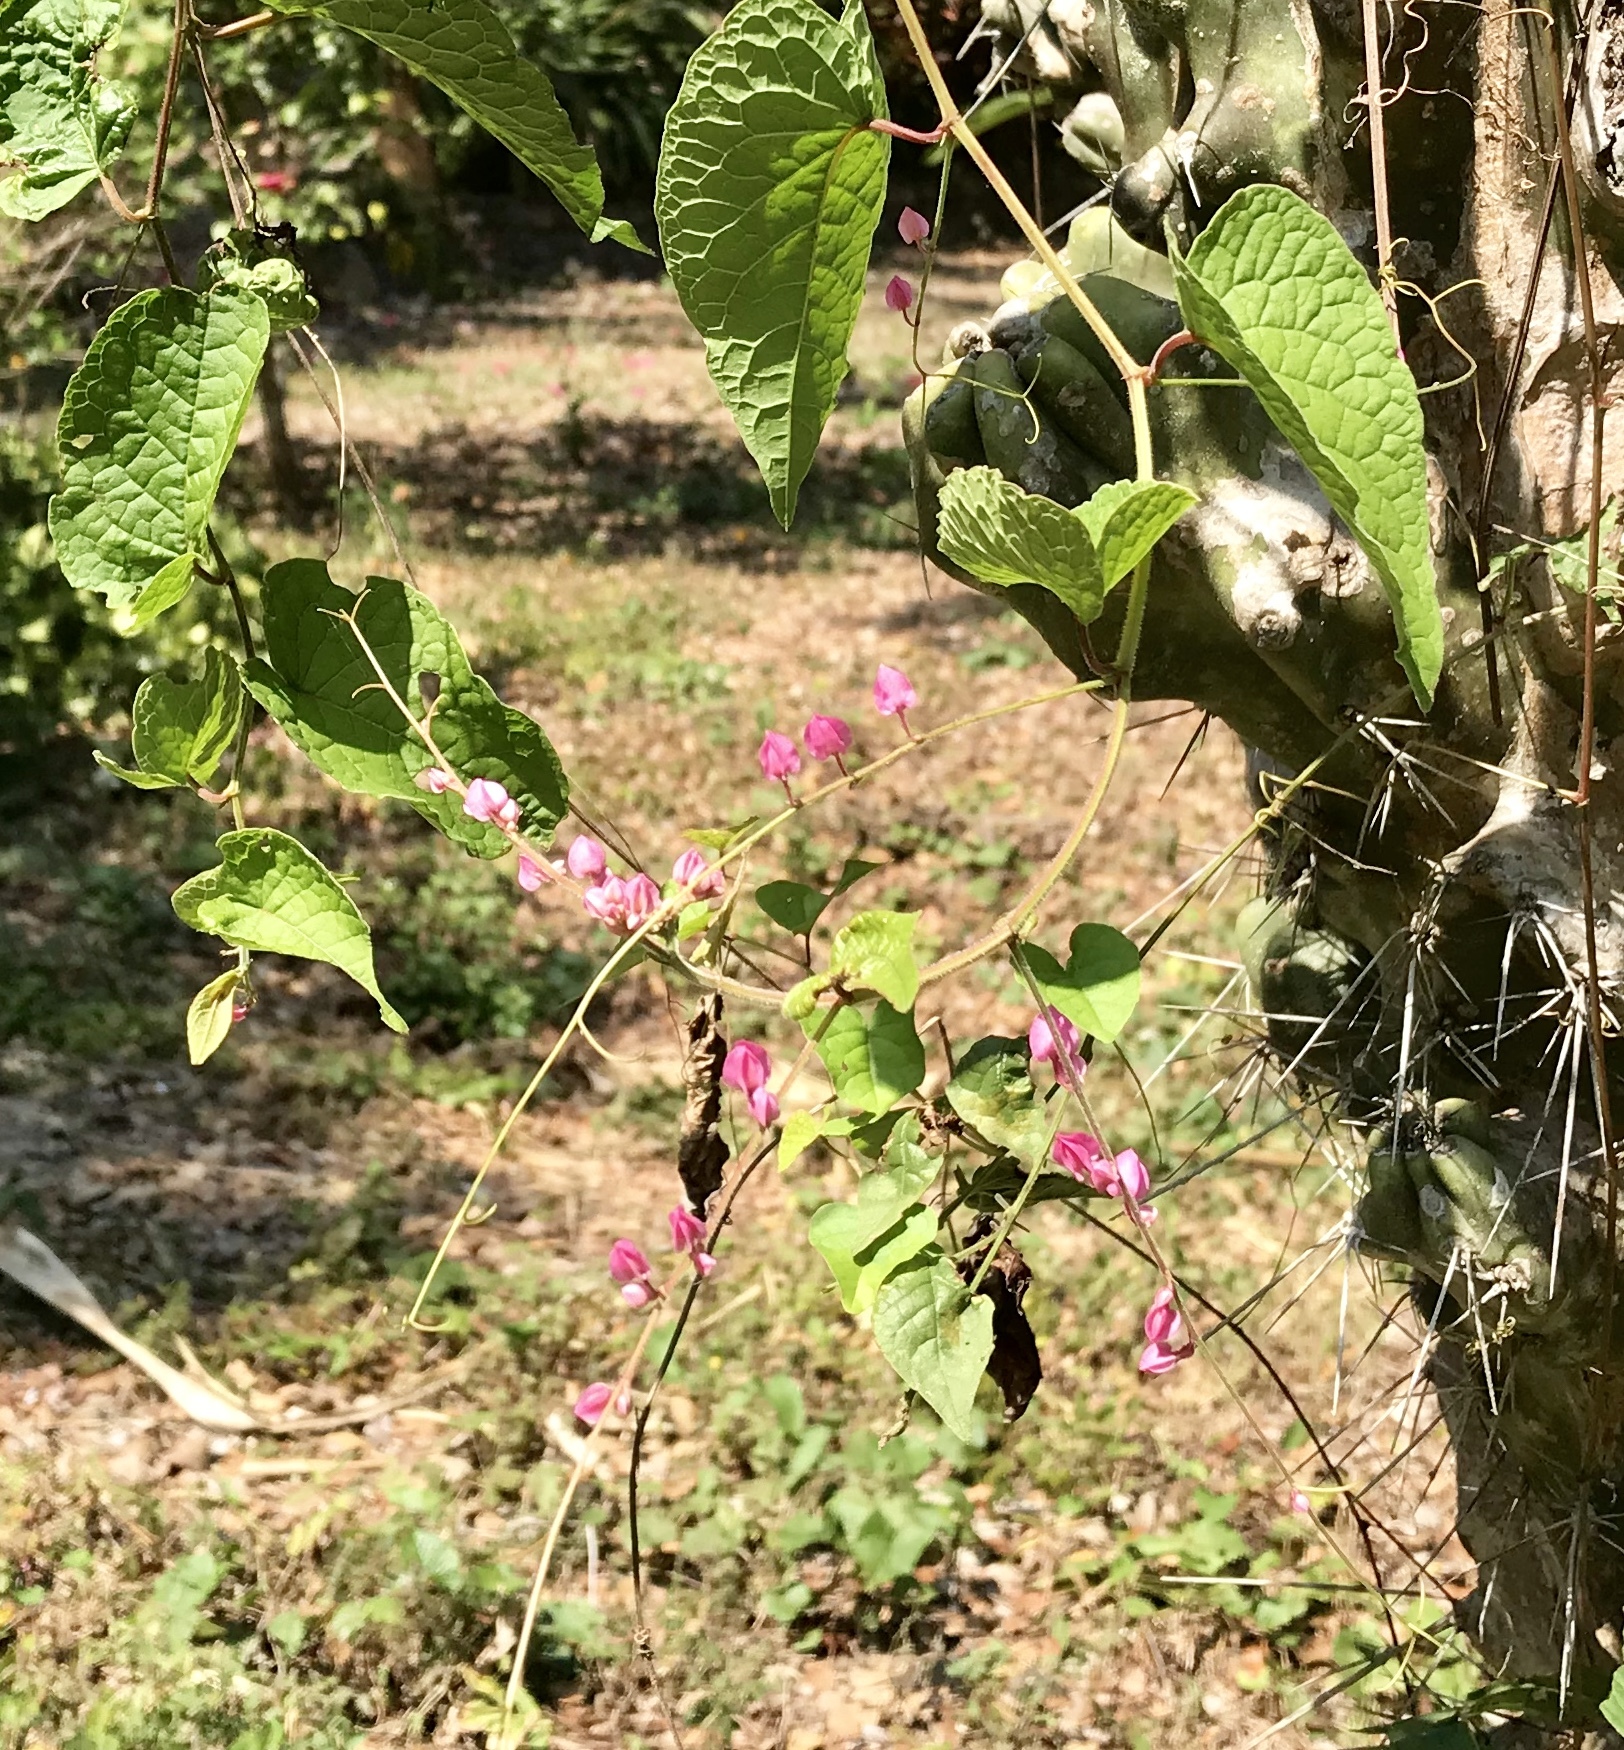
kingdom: Plantae
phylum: Tracheophyta
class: Magnoliopsida
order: Caryophyllales
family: Polygonaceae
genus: Antigonon
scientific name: Antigonon leptopus
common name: Coral vine
